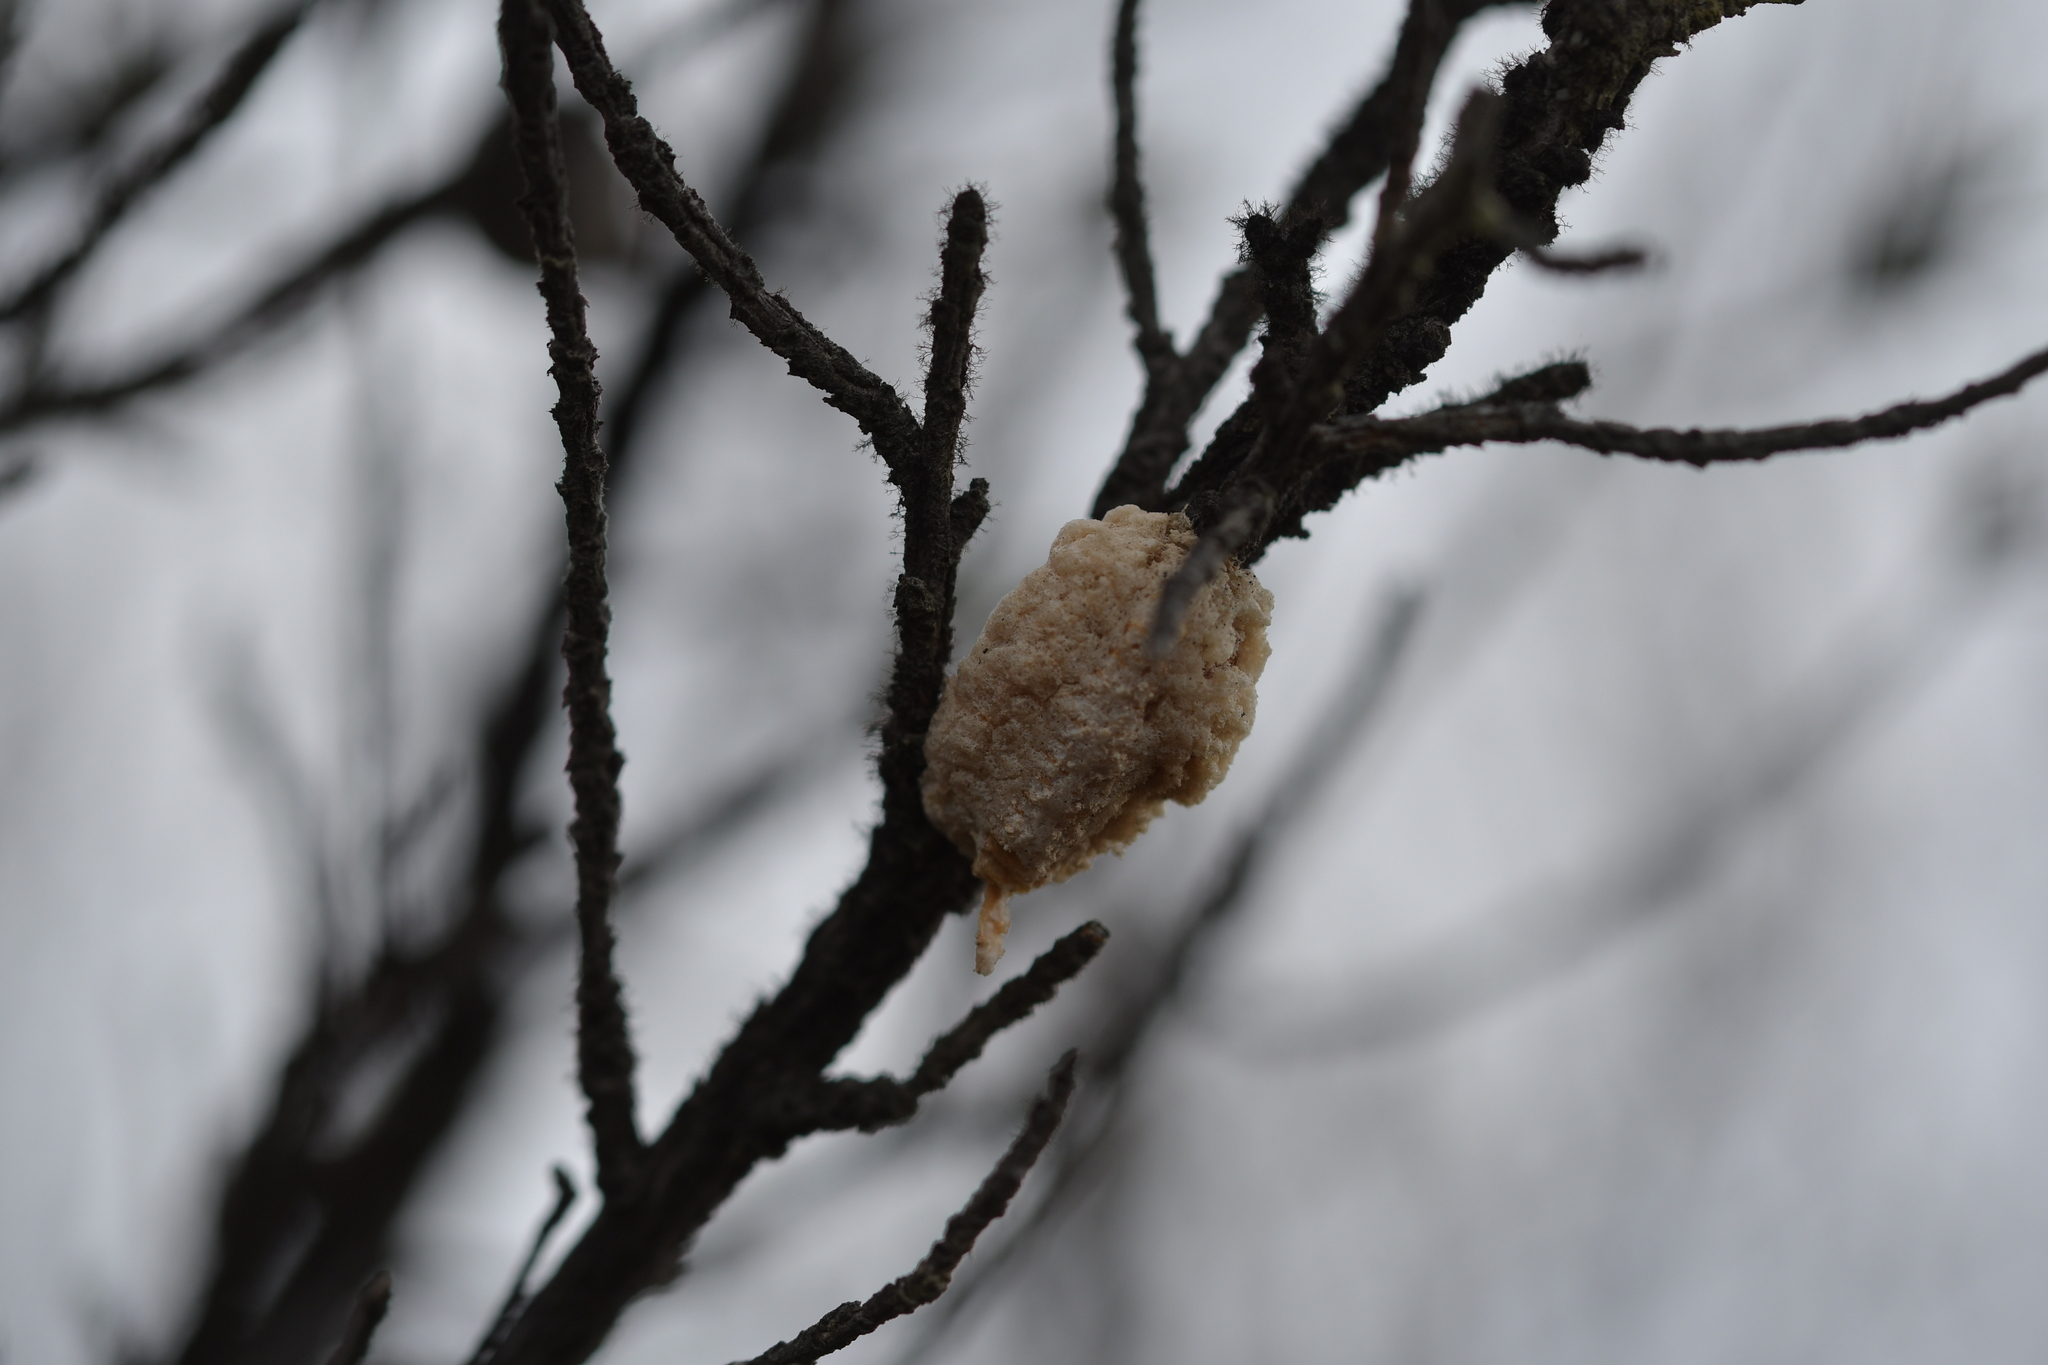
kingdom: Animalia
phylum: Arthropoda
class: Insecta
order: Mantodea
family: Miomantidae
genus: Miomantis
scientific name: Miomantis caffra
